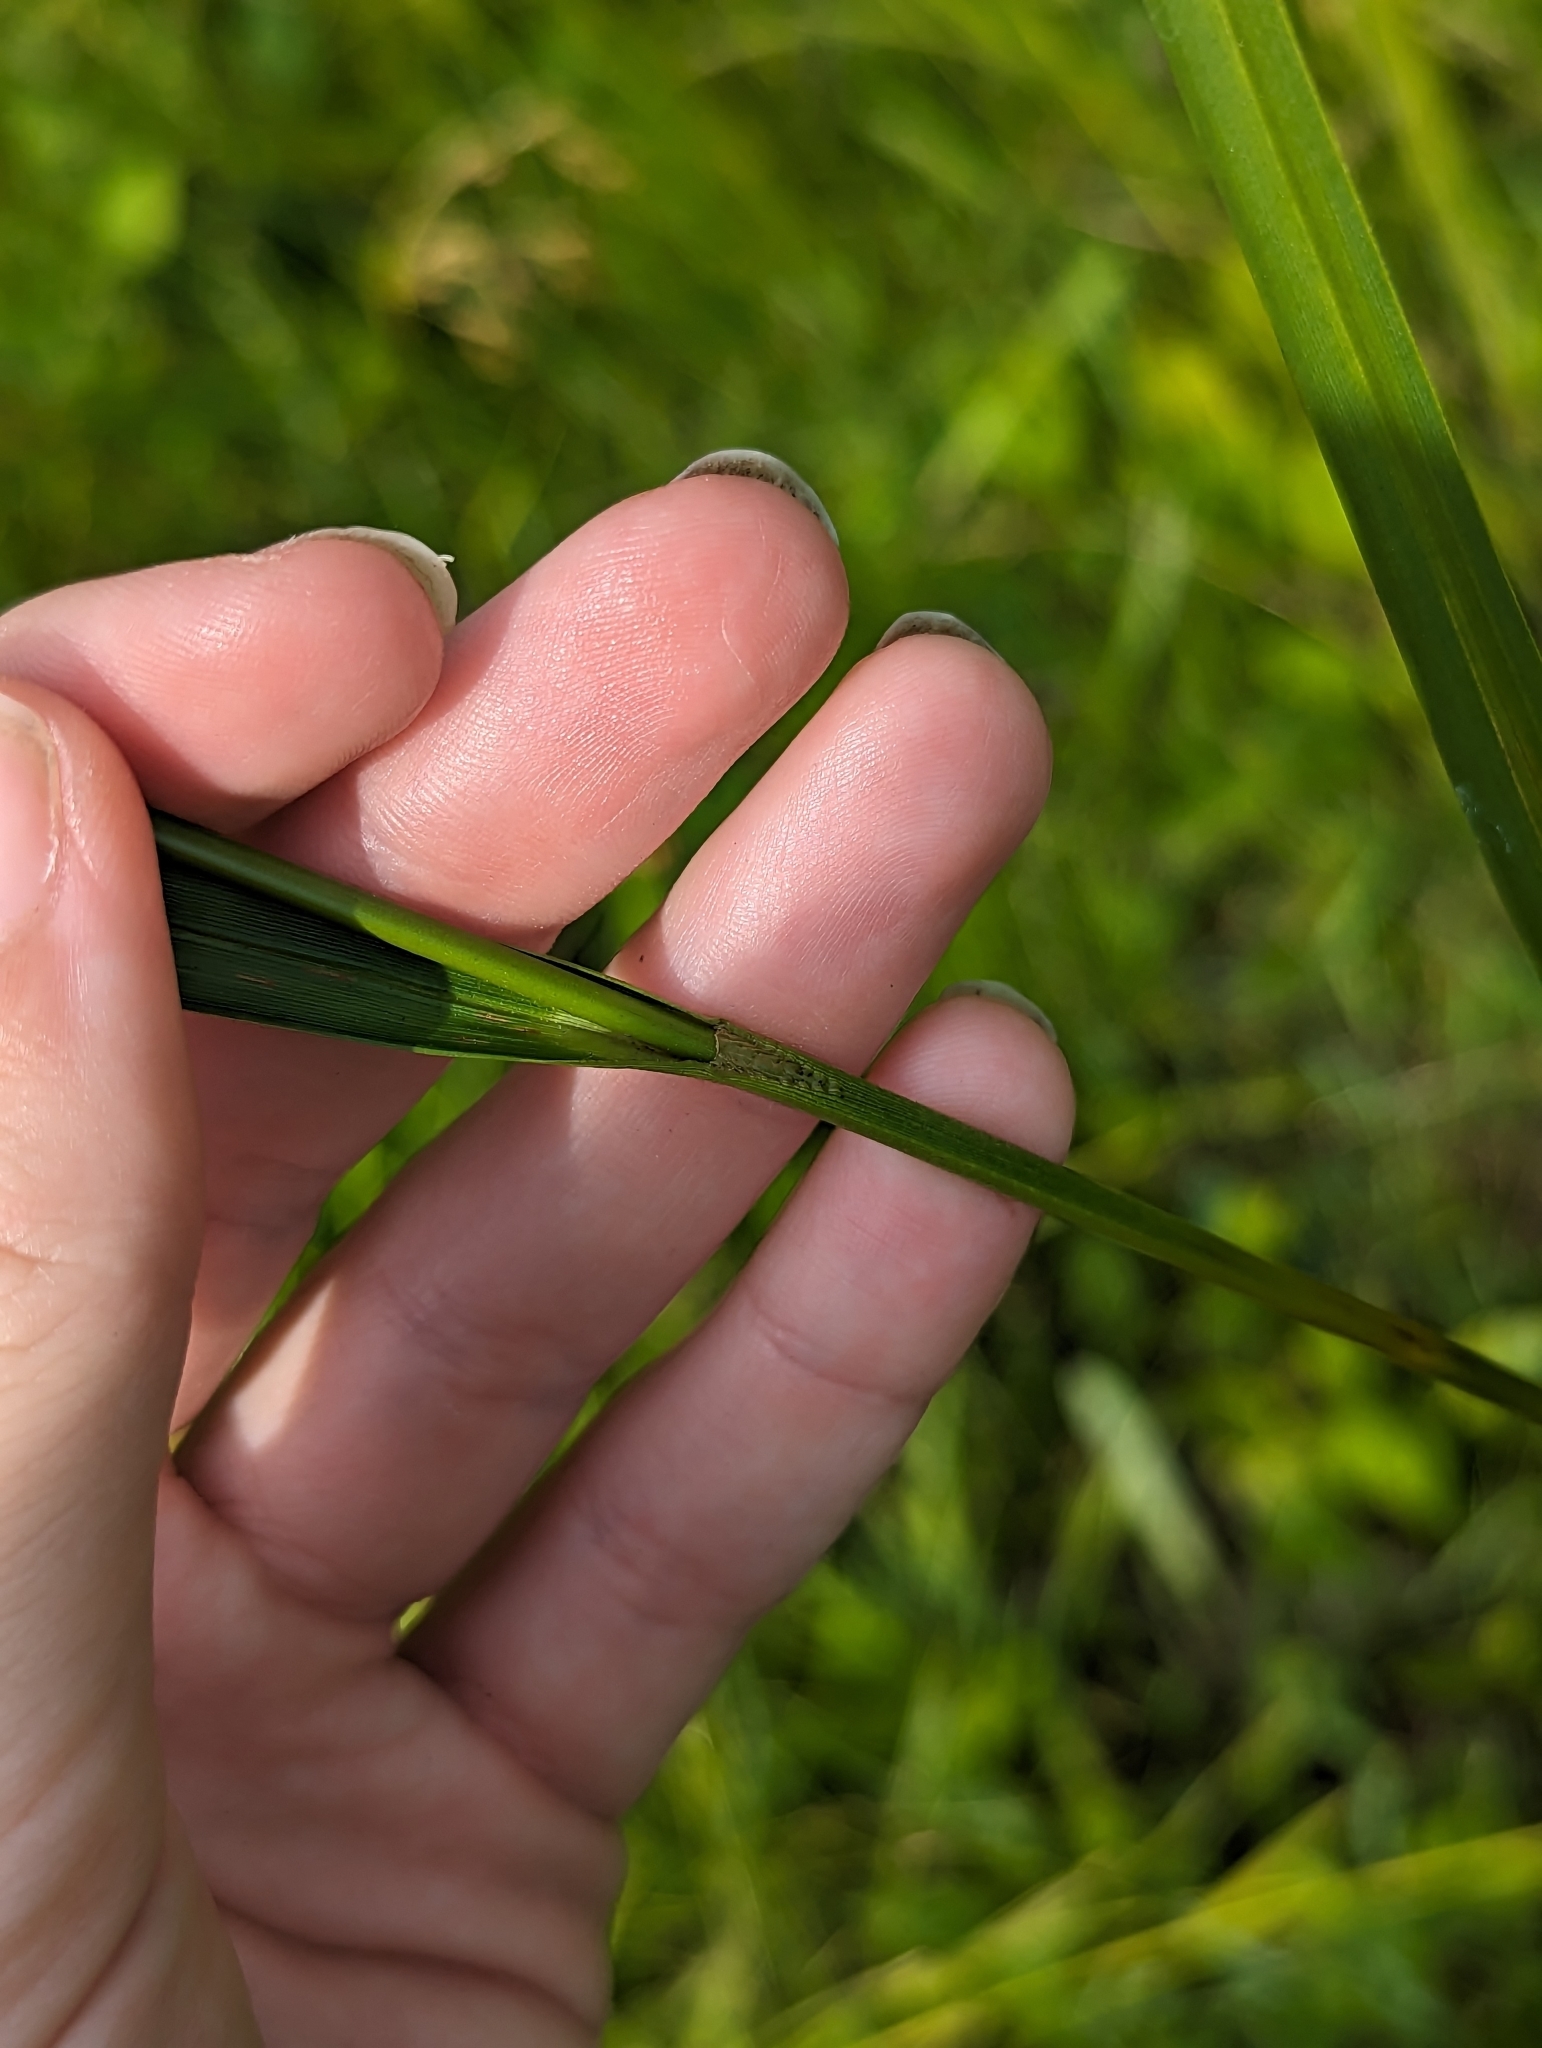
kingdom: Plantae
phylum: Tracheophyta
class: Liliopsida
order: Poales
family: Cyperaceae
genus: Scirpus
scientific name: Scirpus atrovirens
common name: Black bulrush
